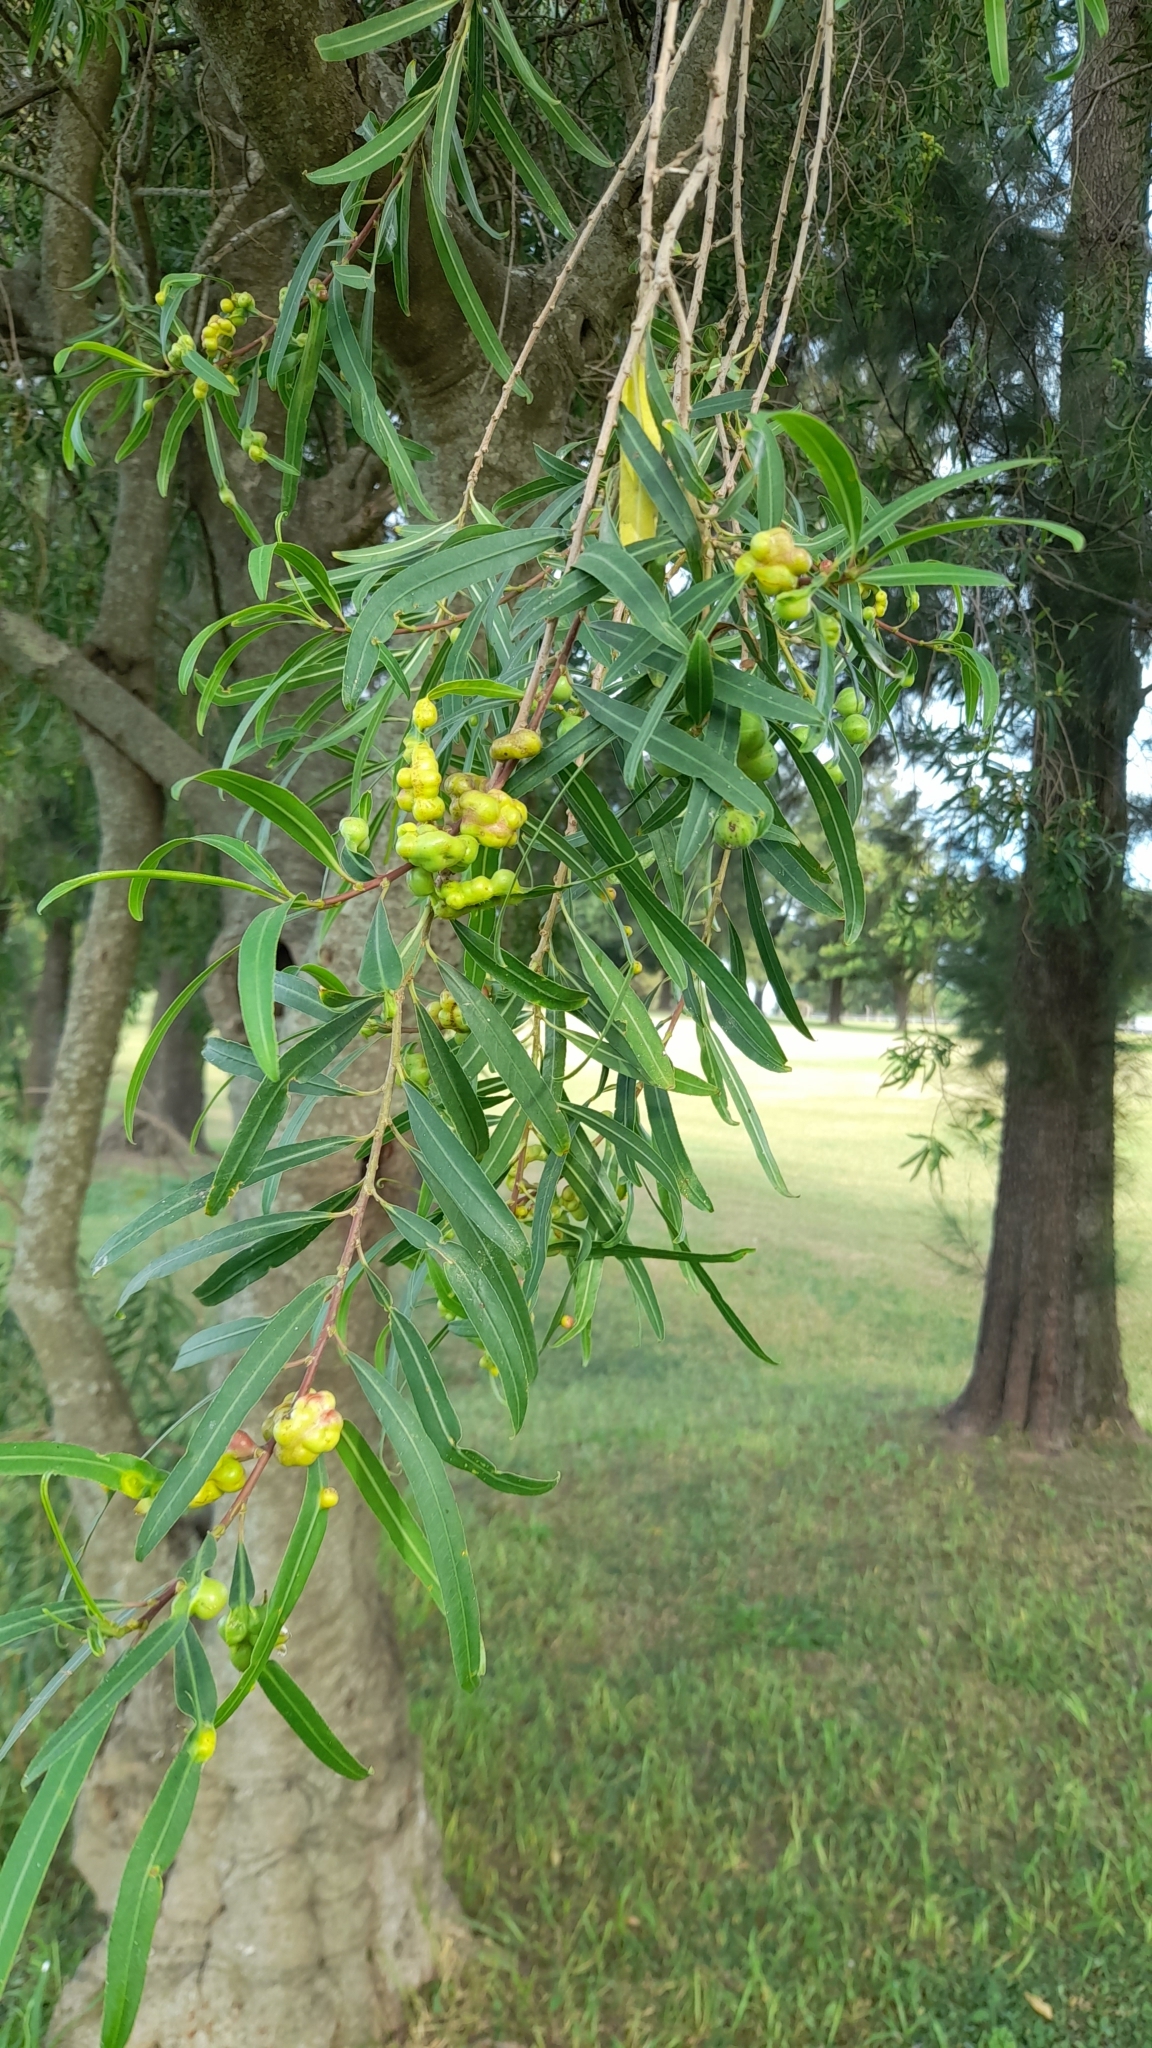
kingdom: Plantae
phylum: Tracheophyta
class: Magnoliopsida
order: Malpighiales
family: Euphorbiaceae
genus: Sapium
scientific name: Sapium haematospermum
